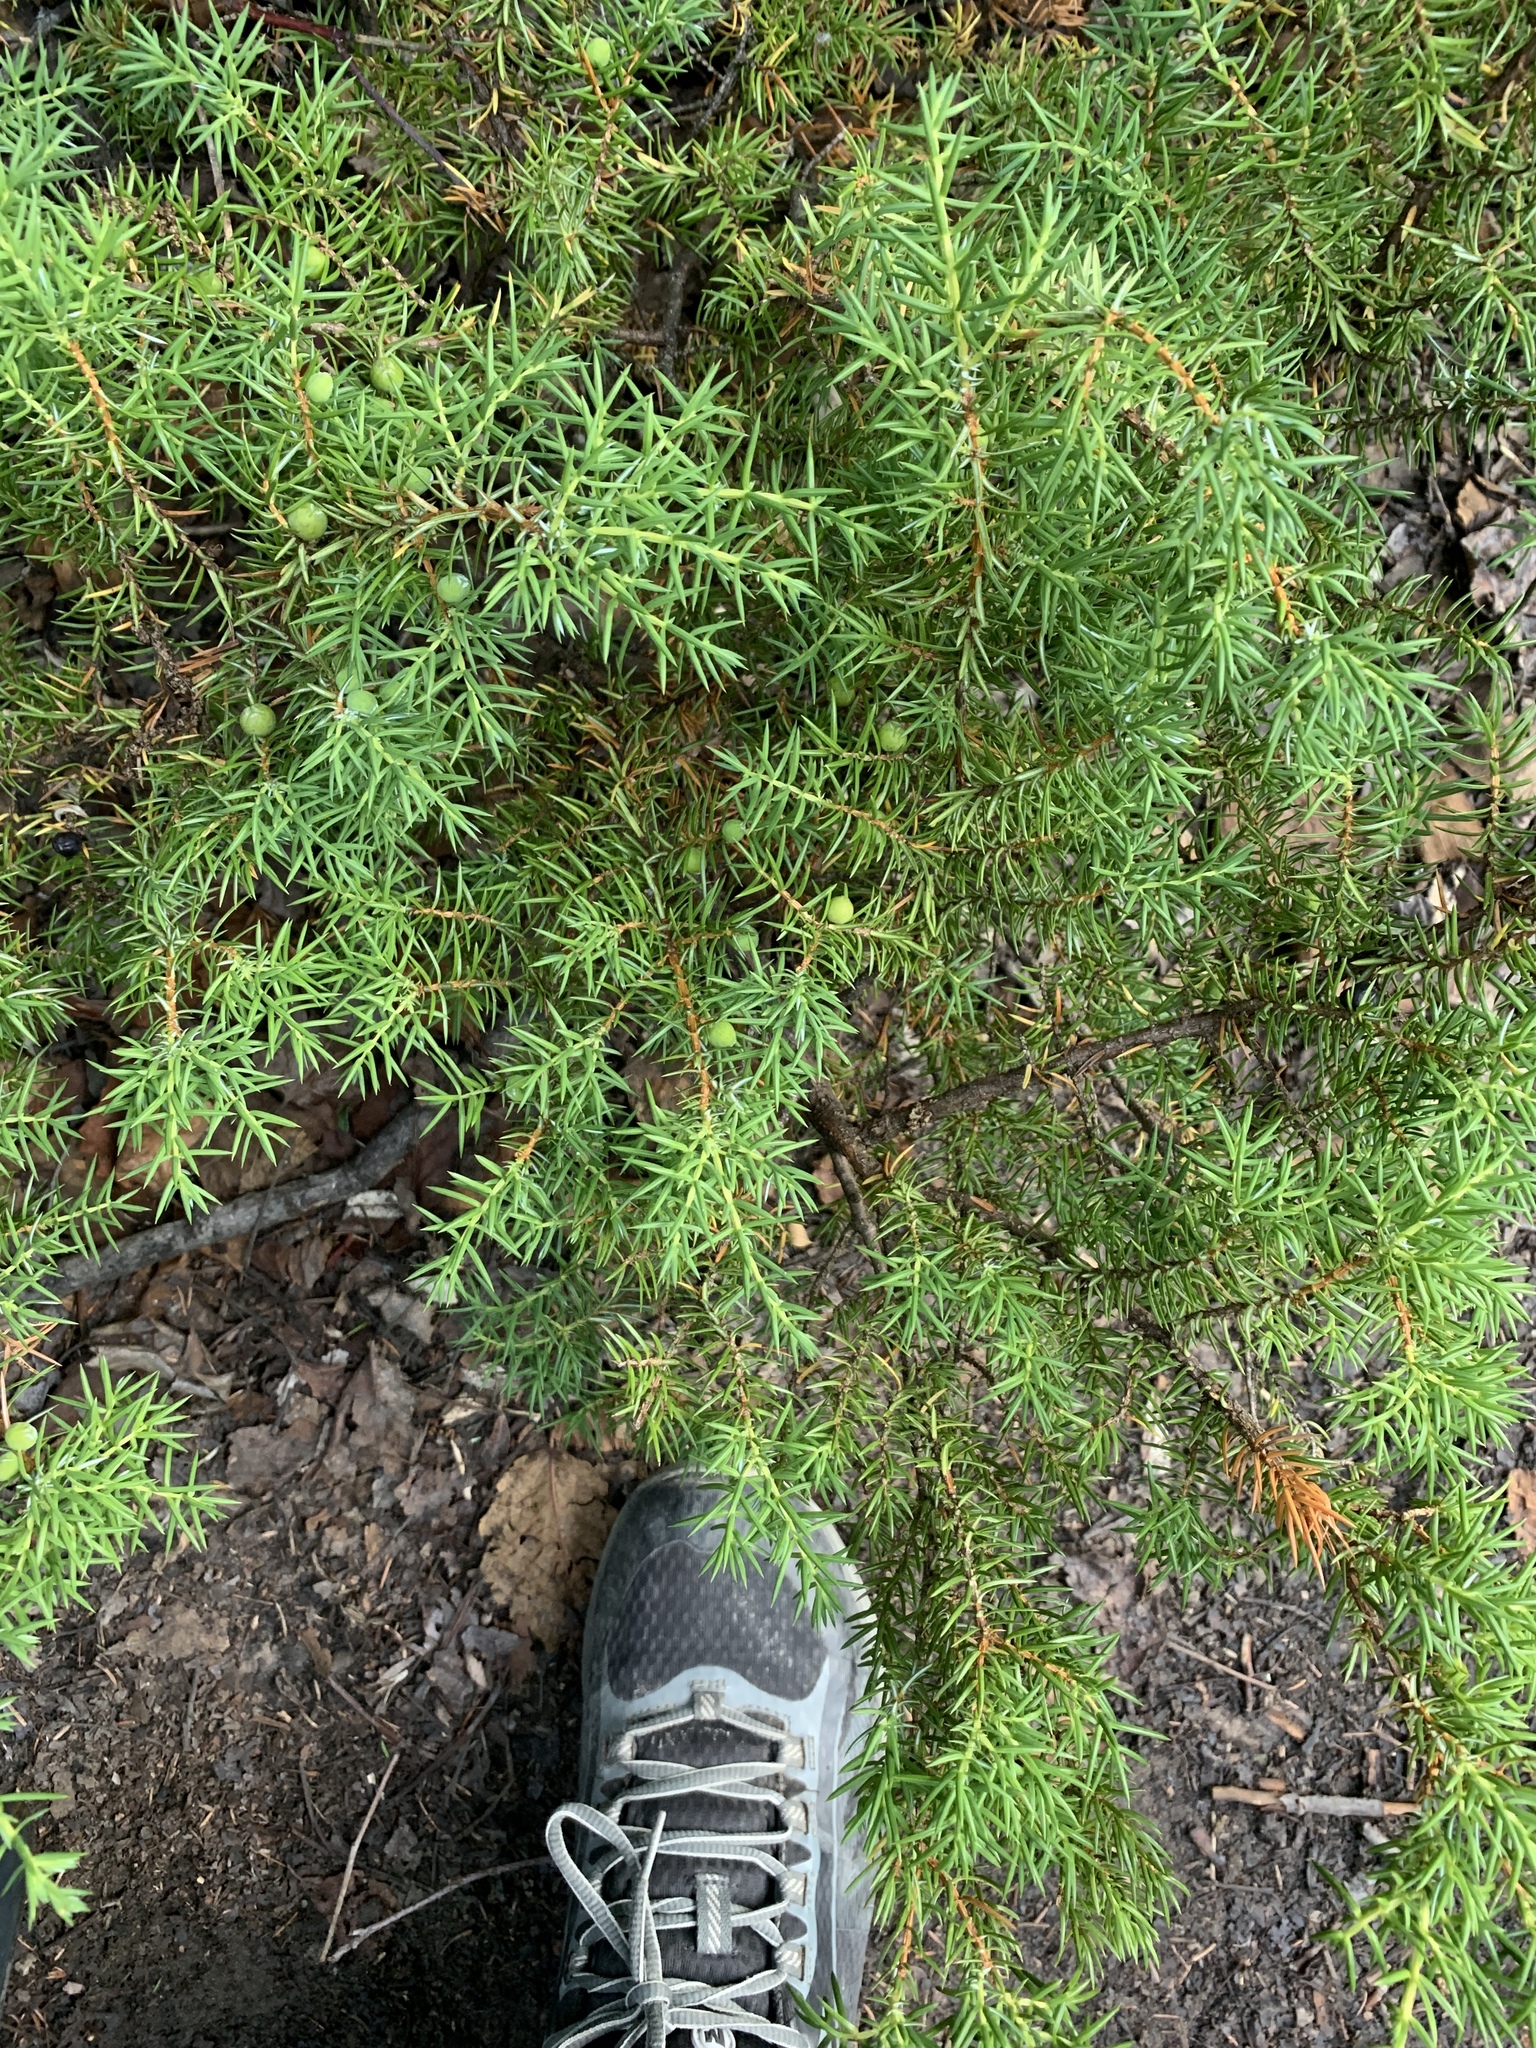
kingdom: Plantae
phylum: Tracheophyta
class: Pinopsida
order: Pinales
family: Cupressaceae
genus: Juniperus
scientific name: Juniperus communis
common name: Common juniper
